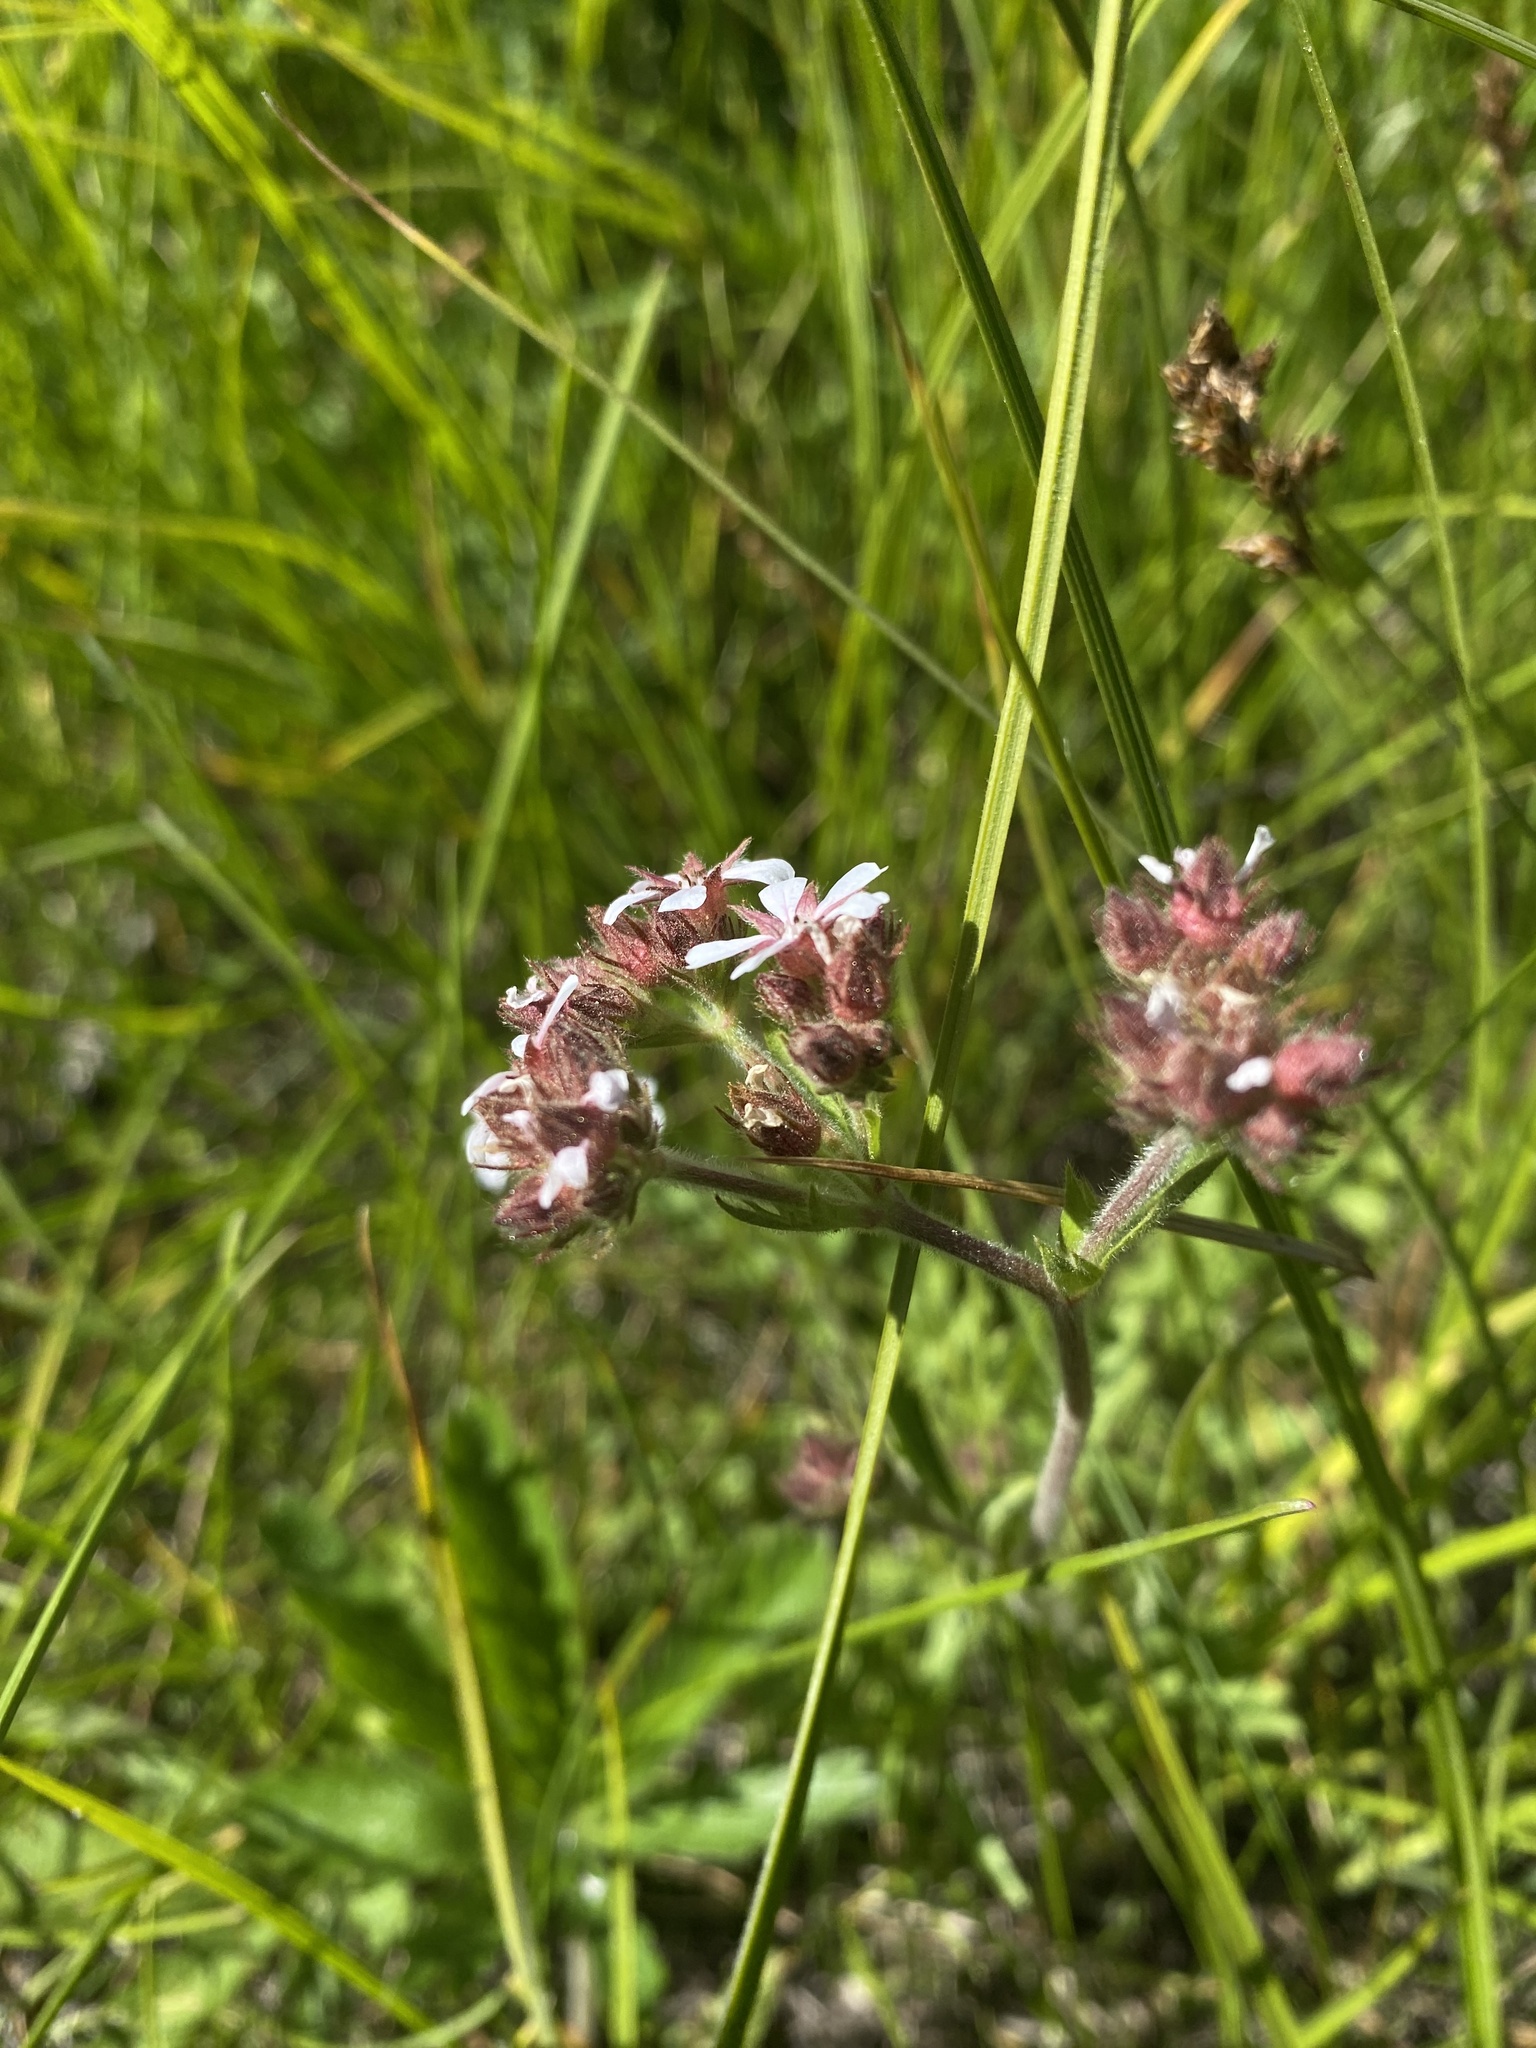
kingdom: Plantae
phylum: Tracheophyta
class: Magnoliopsida
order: Rosales
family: Rosaceae
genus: Potentilla
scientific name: Potentilla douglasii
